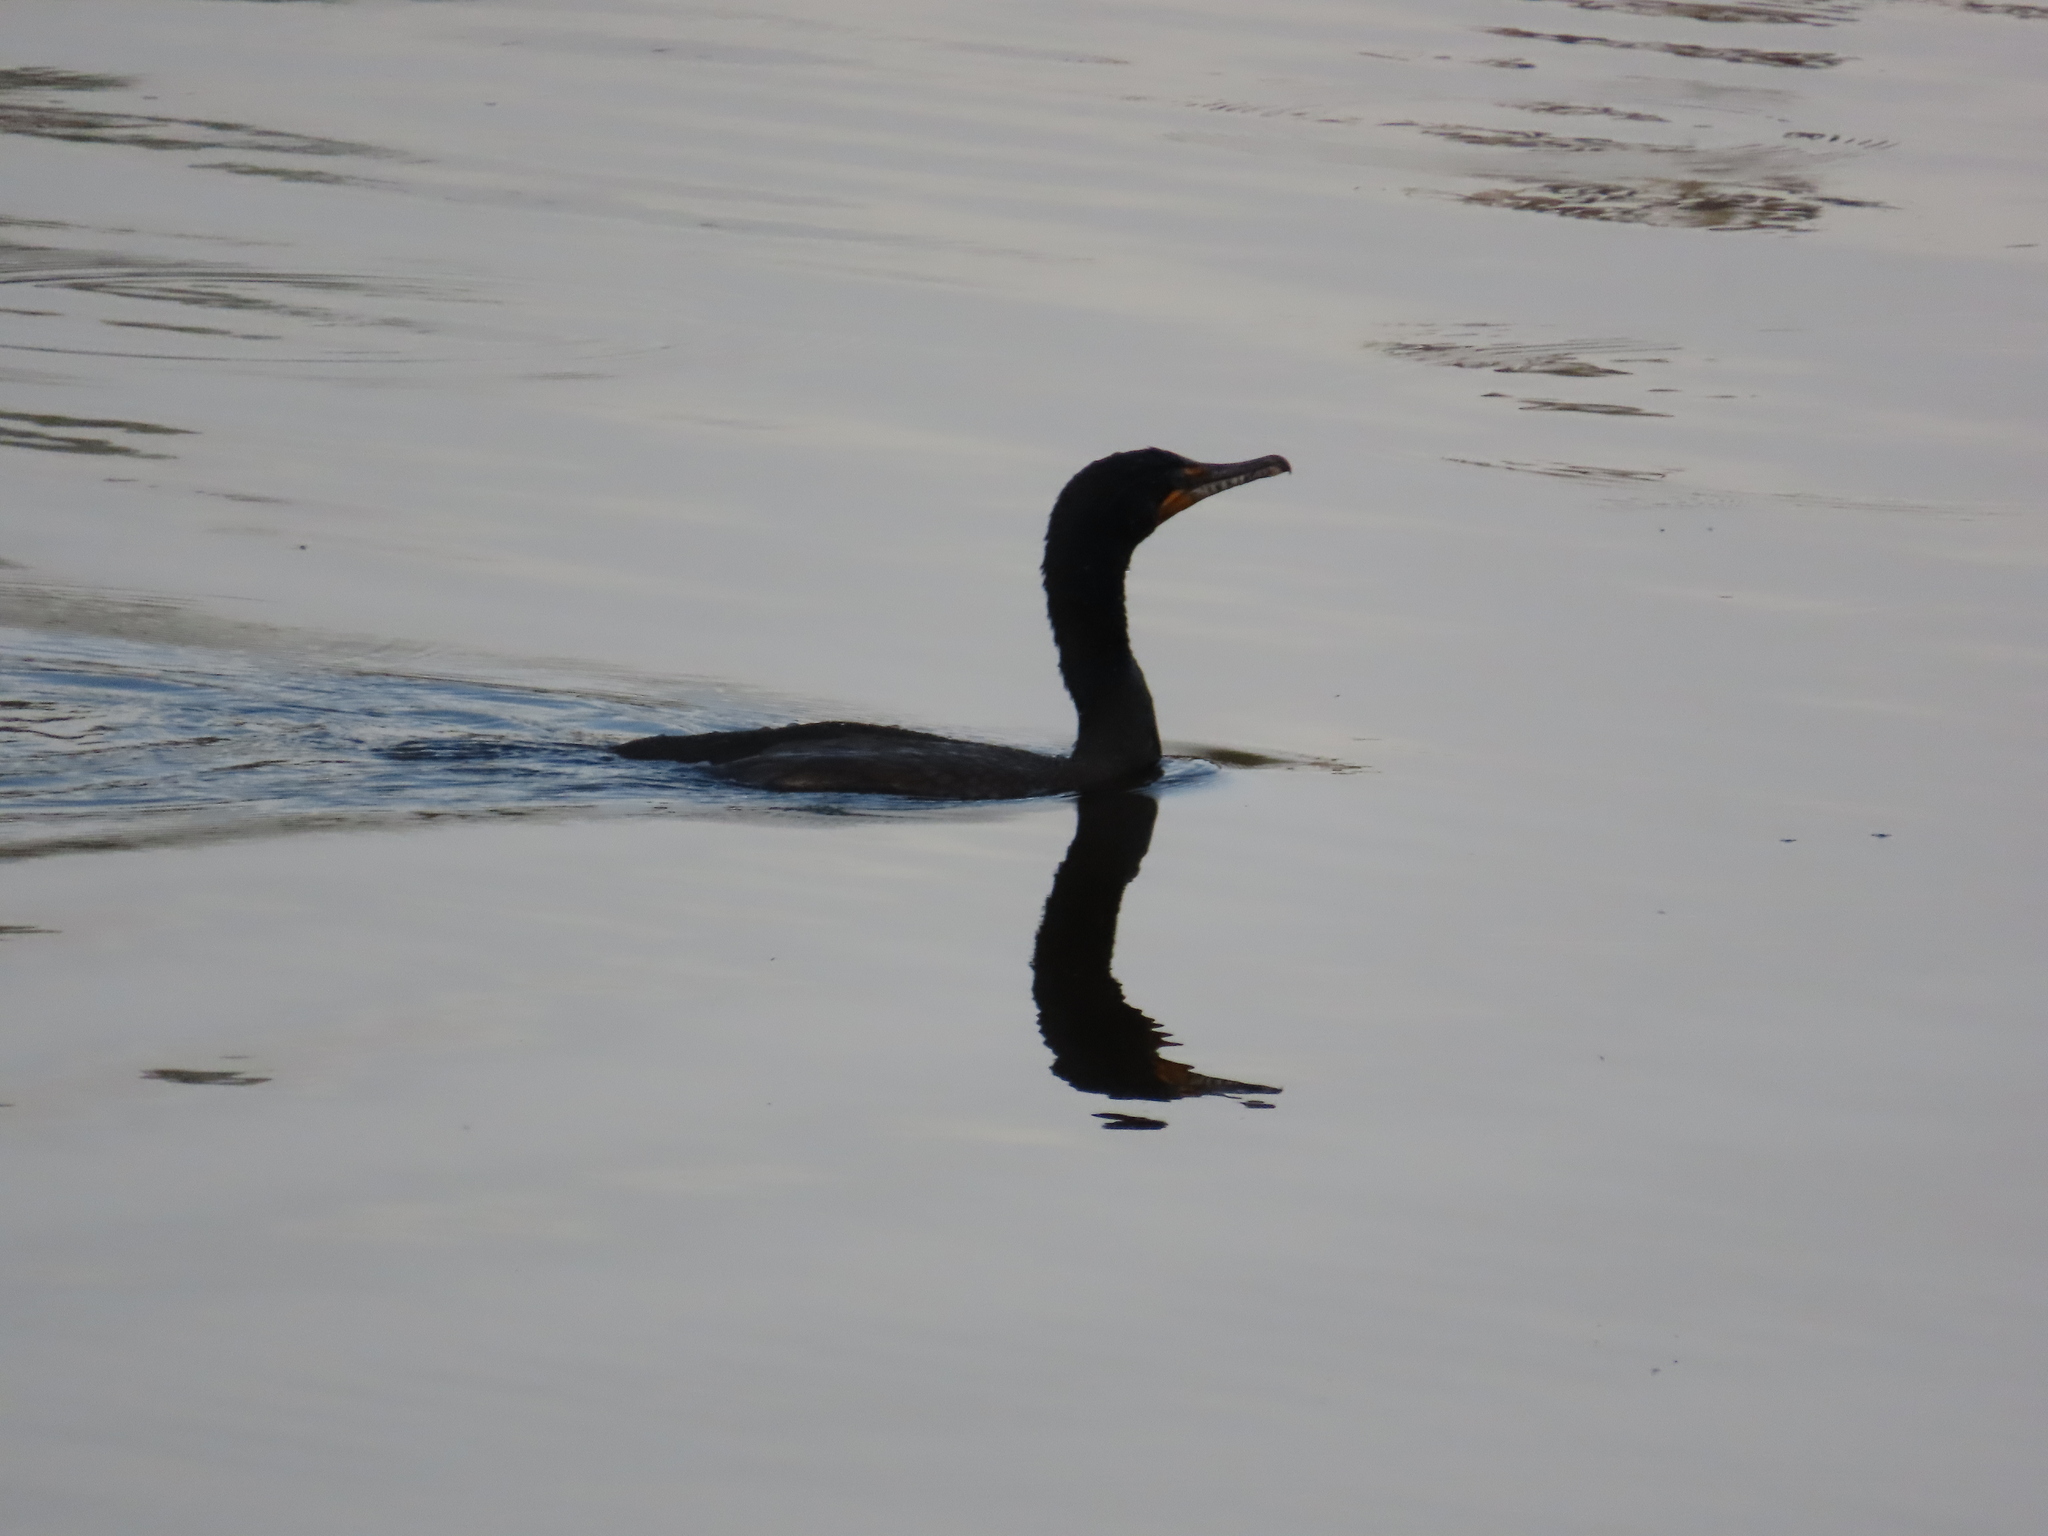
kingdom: Animalia
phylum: Chordata
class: Aves
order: Suliformes
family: Phalacrocoracidae
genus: Phalacrocorax
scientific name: Phalacrocorax auritus
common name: Double-crested cormorant
